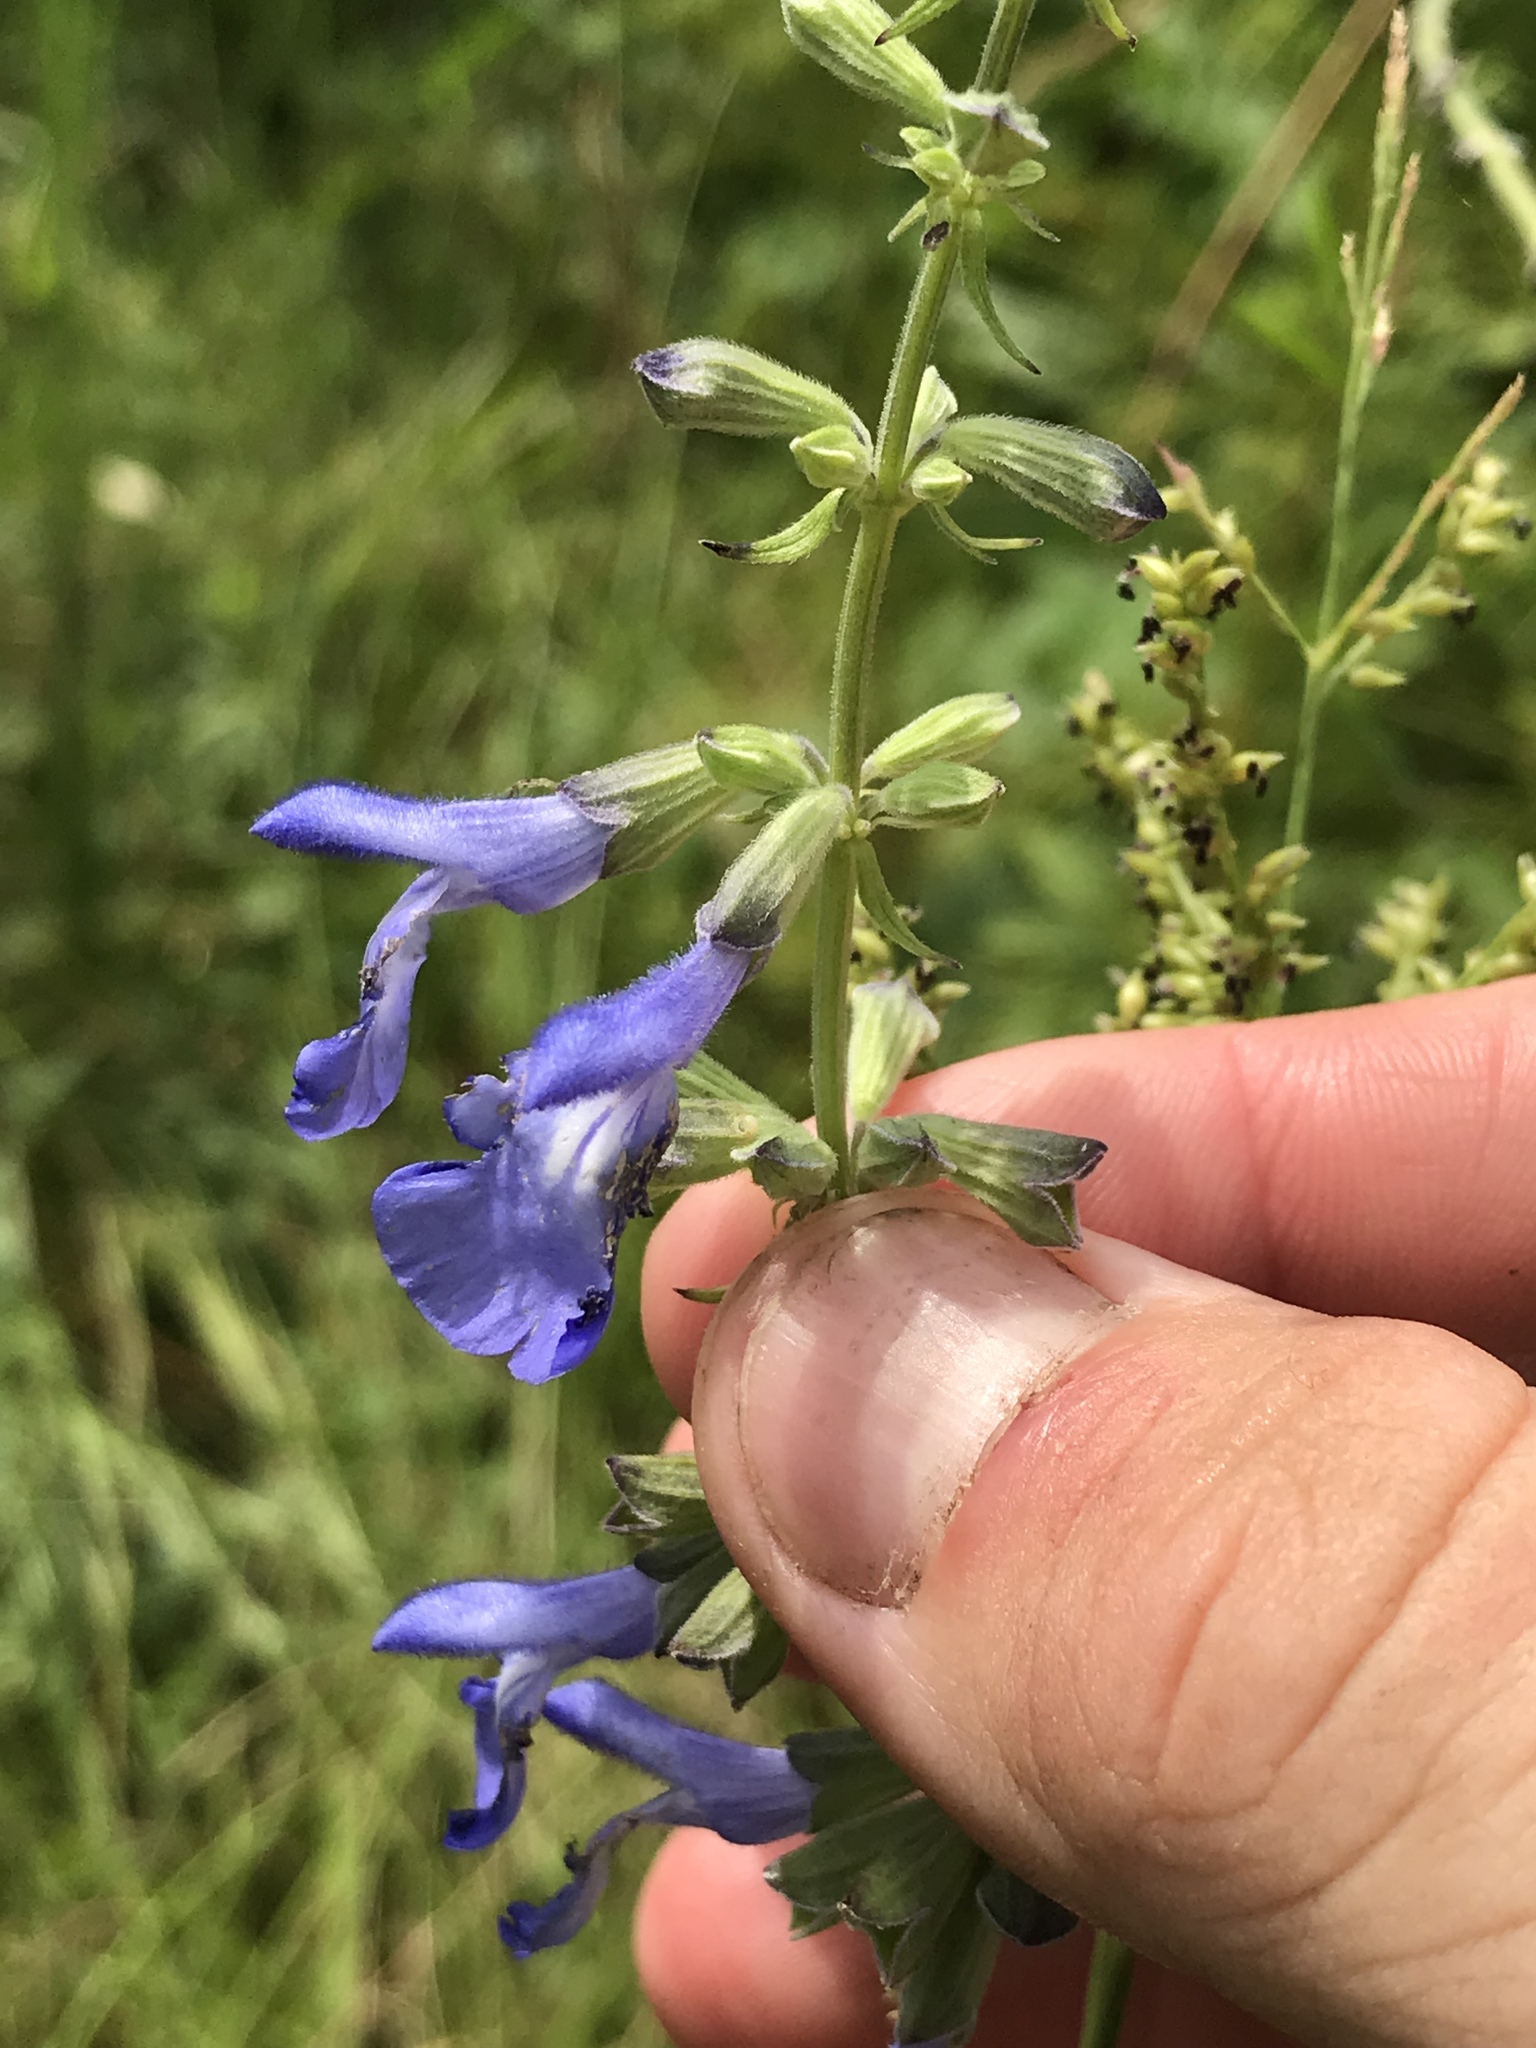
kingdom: Plantae
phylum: Tracheophyta
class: Magnoliopsida
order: Lamiales
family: Lamiaceae
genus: Salvia
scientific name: Salvia azurea
